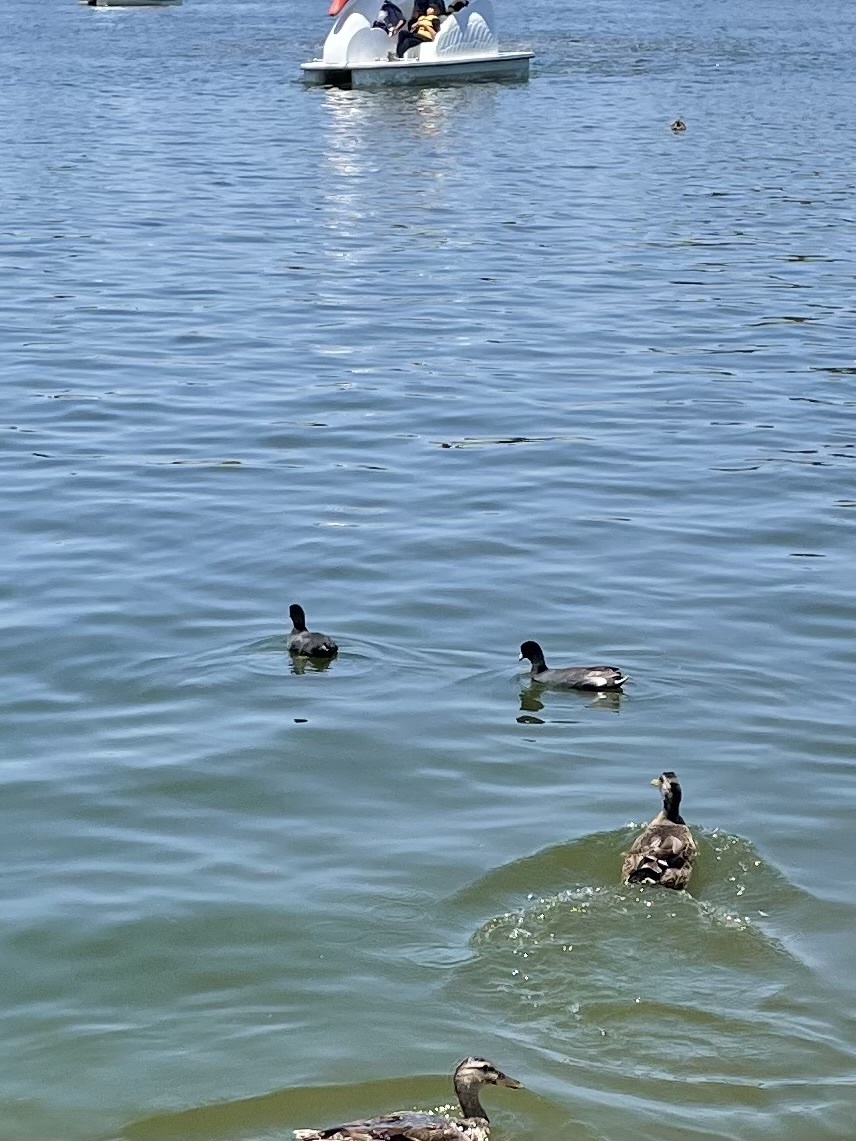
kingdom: Animalia
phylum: Chordata
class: Aves
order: Gruiformes
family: Rallidae
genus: Fulica
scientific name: Fulica americana
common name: American coot
